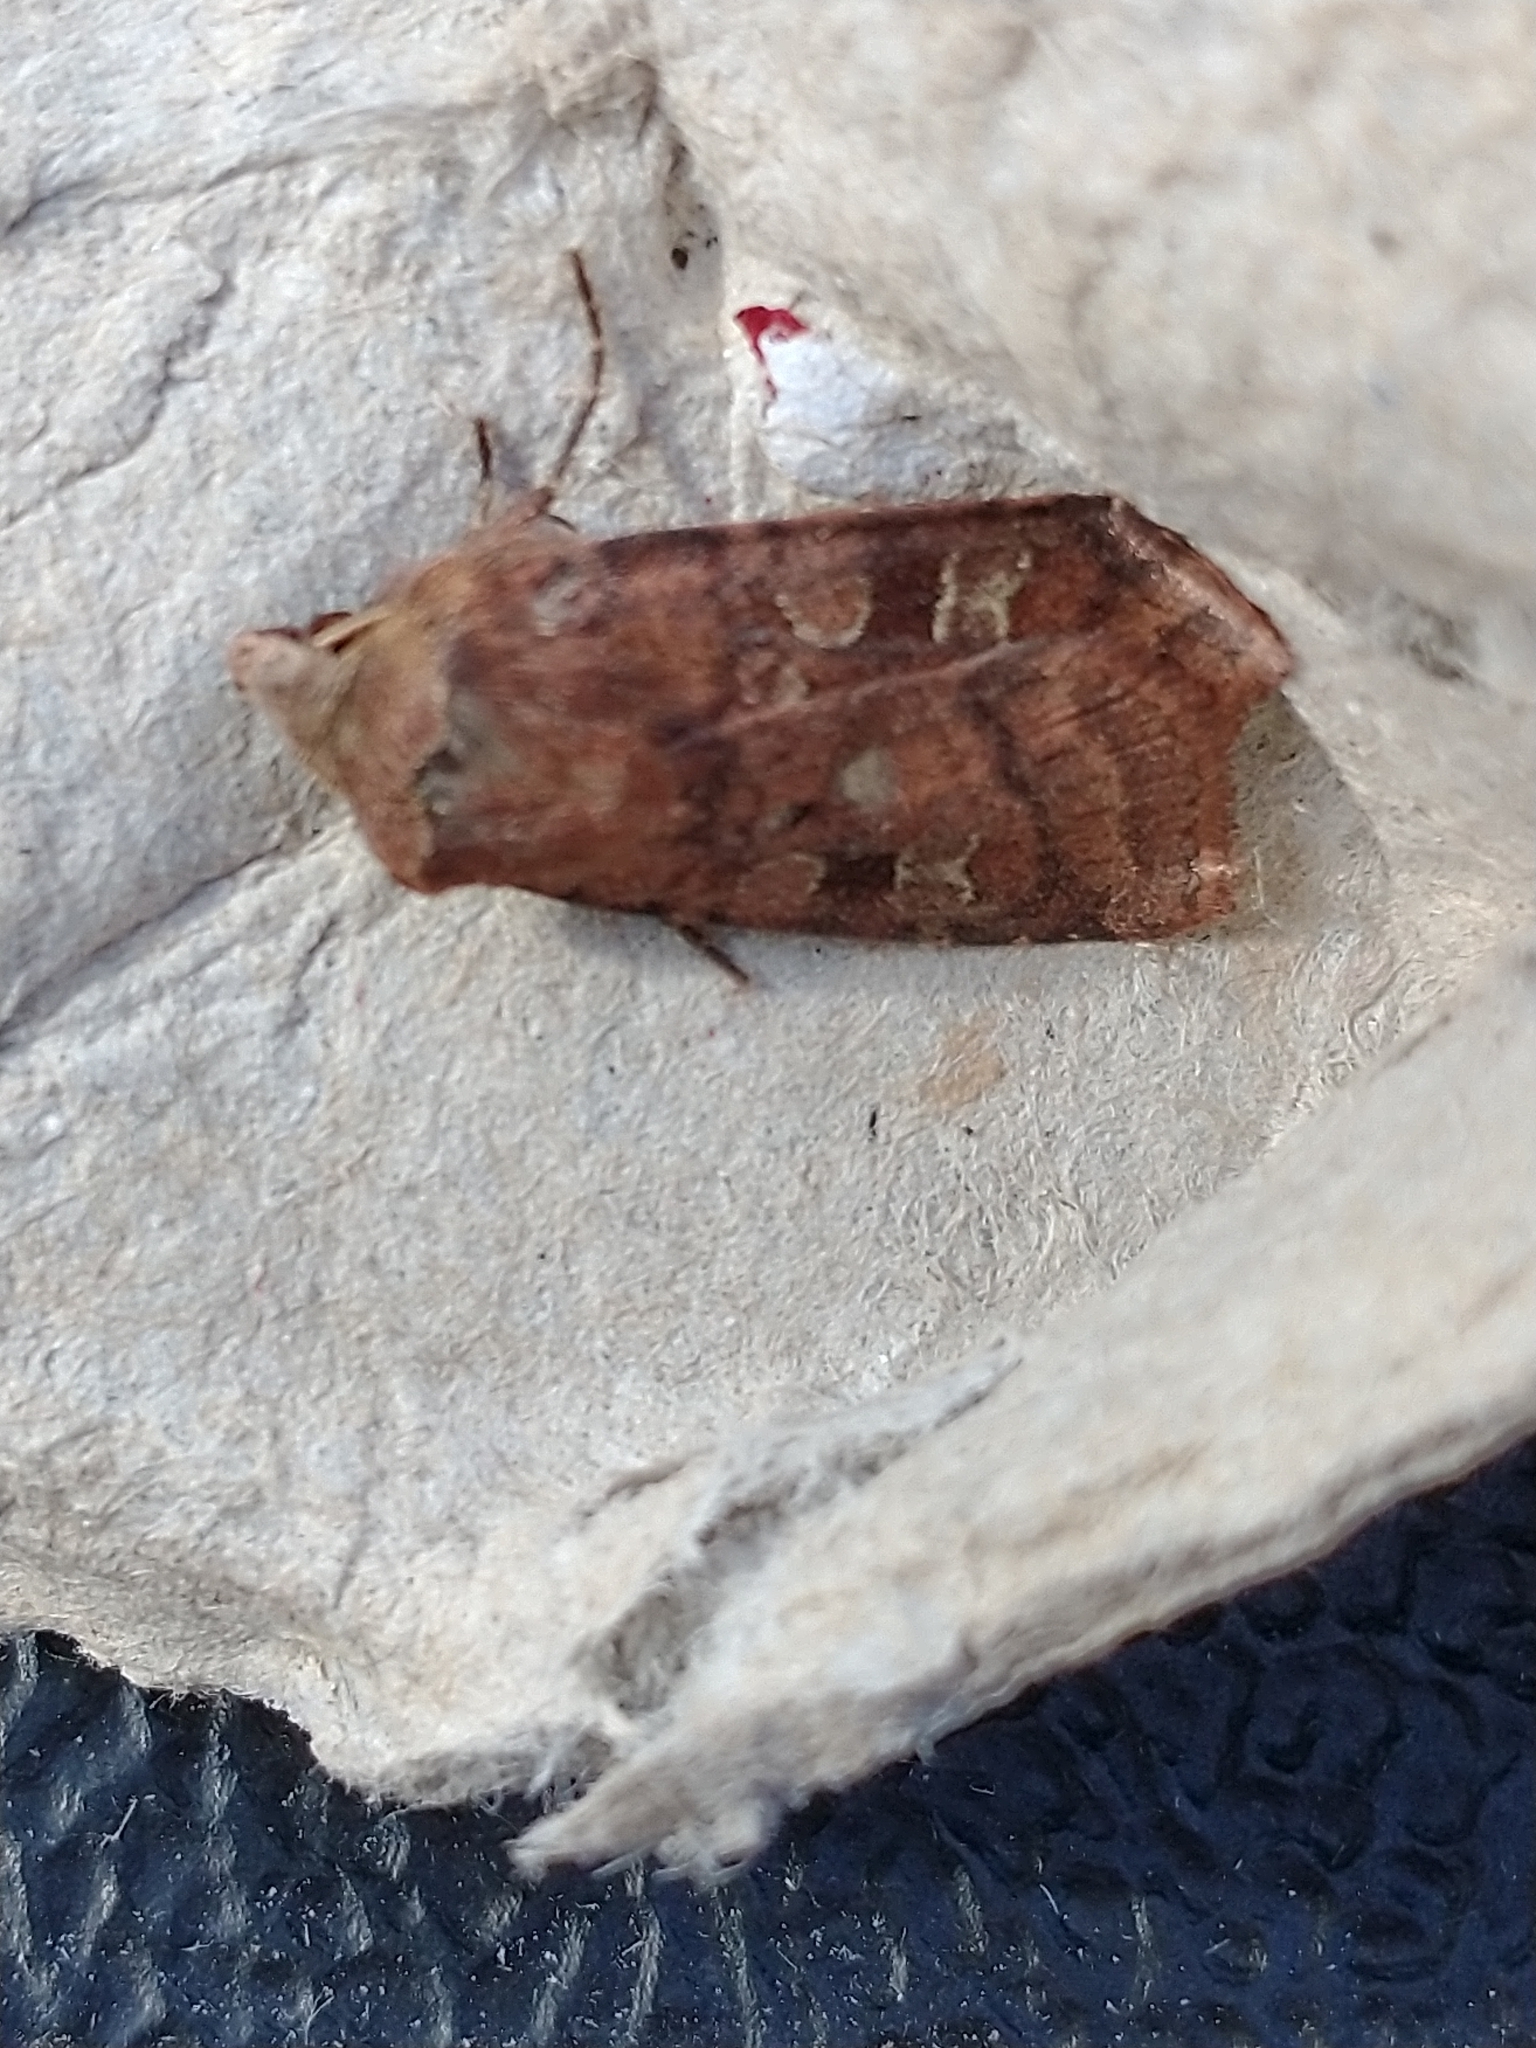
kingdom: Animalia
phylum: Arthropoda
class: Insecta
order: Lepidoptera
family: Noctuidae
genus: Diarsia
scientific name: Diarsia rubi
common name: Small square-spot
